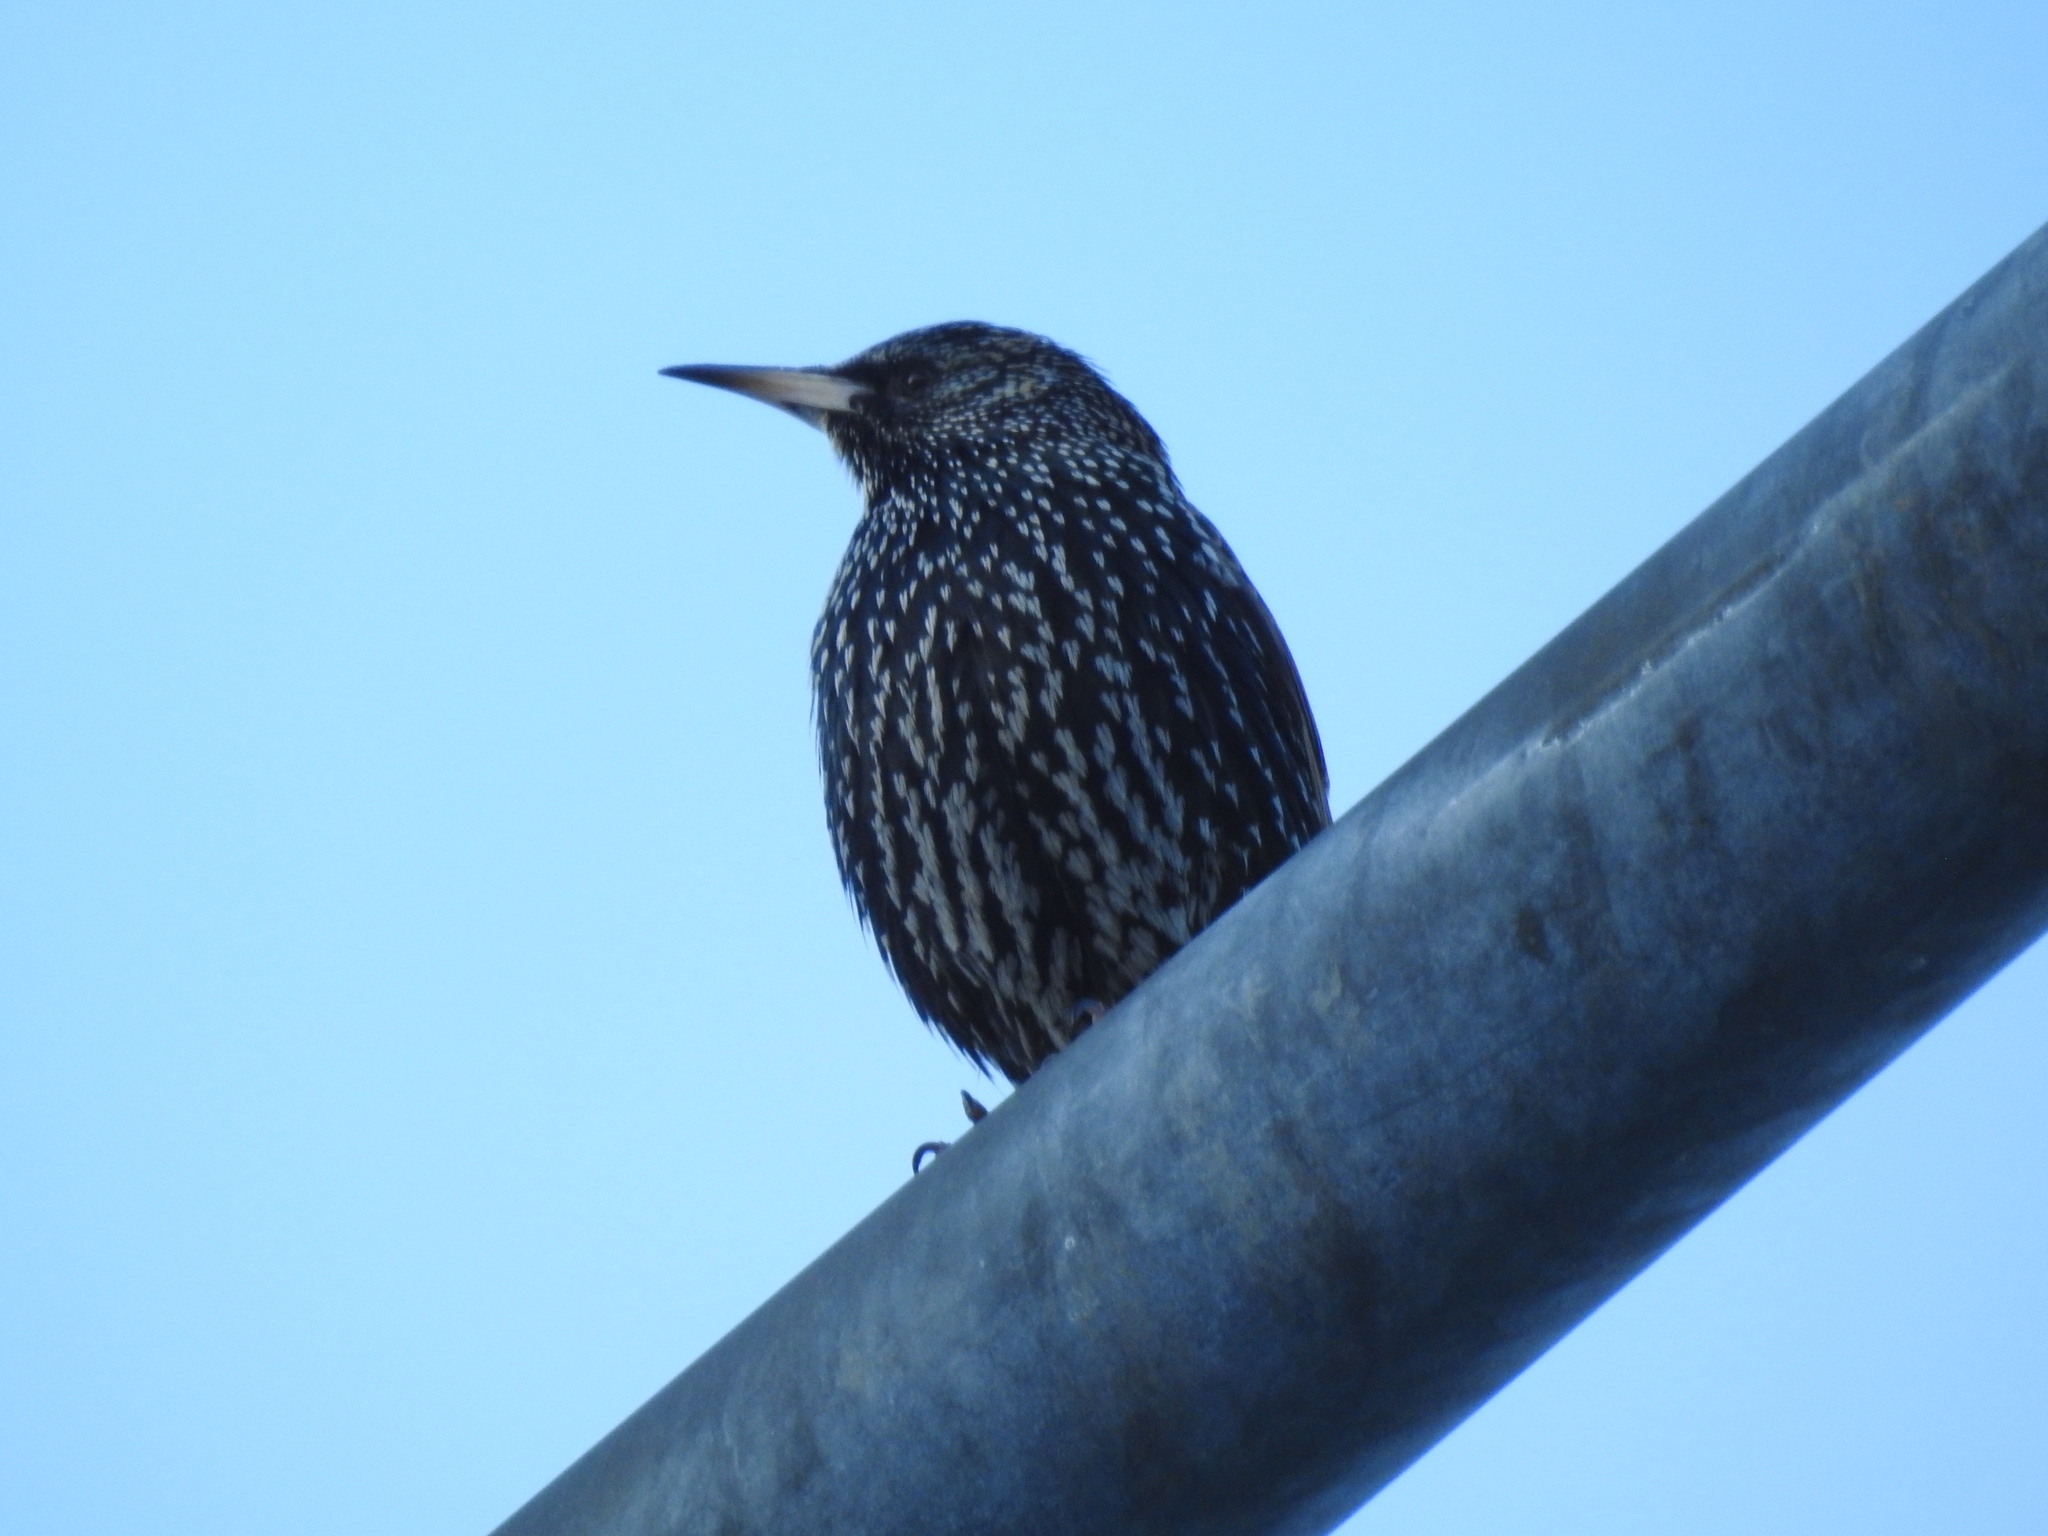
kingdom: Animalia
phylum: Chordata
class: Aves
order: Passeriformes
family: Sturnidae
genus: Sturnus
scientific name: Sturnus vulgaris
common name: Common starling
